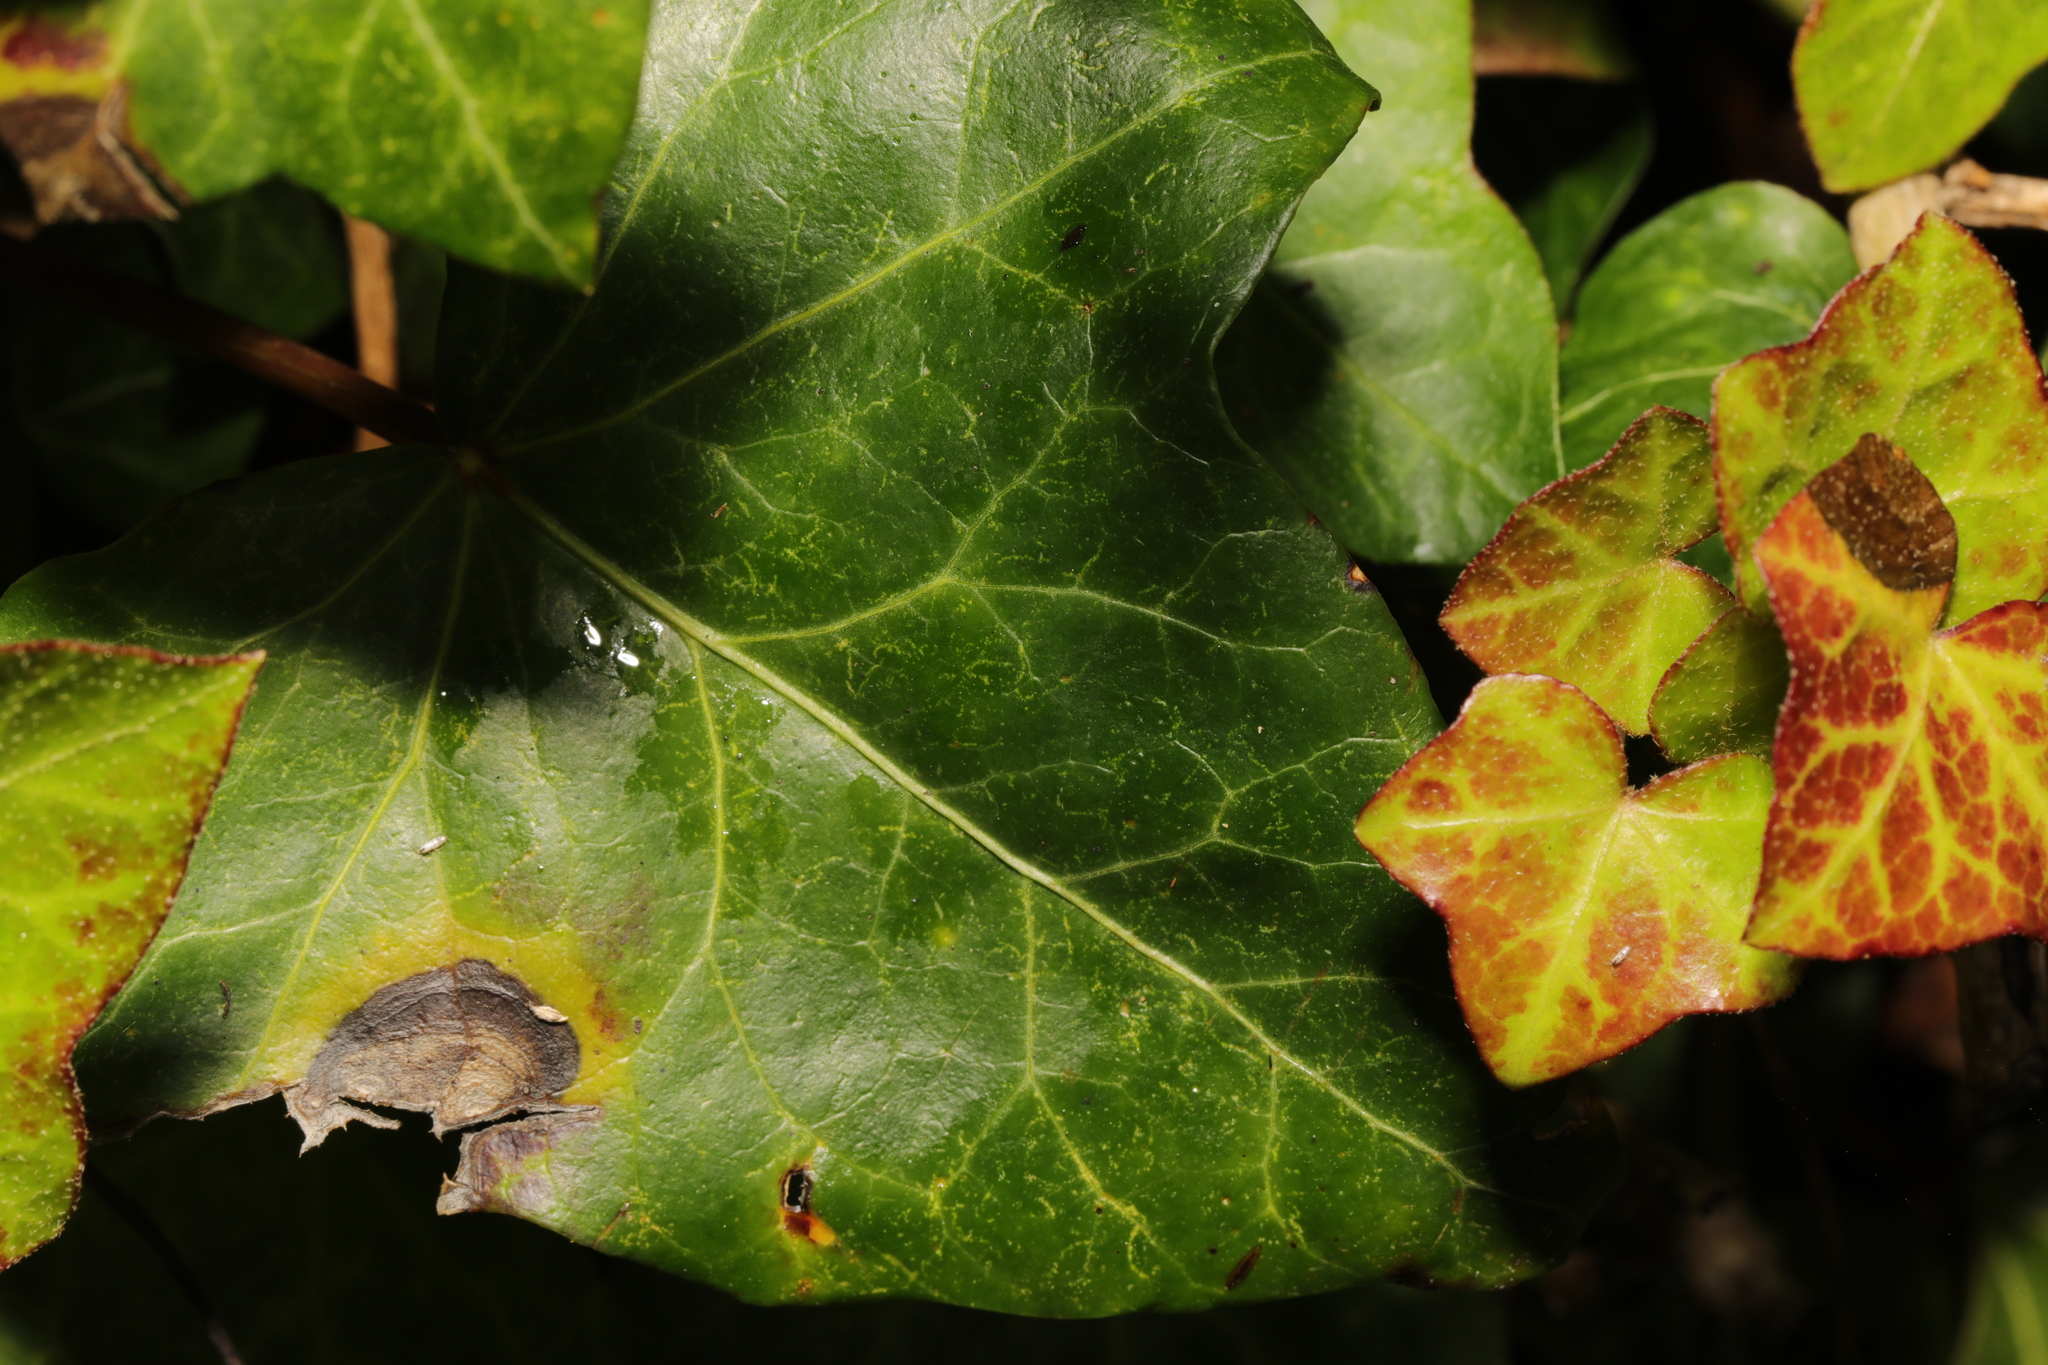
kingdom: Fungi
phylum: Ascomycota
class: Dothideomycetes
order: Pleosporales
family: Didymellaceae
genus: Boeremia
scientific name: Boeremia hedericola
